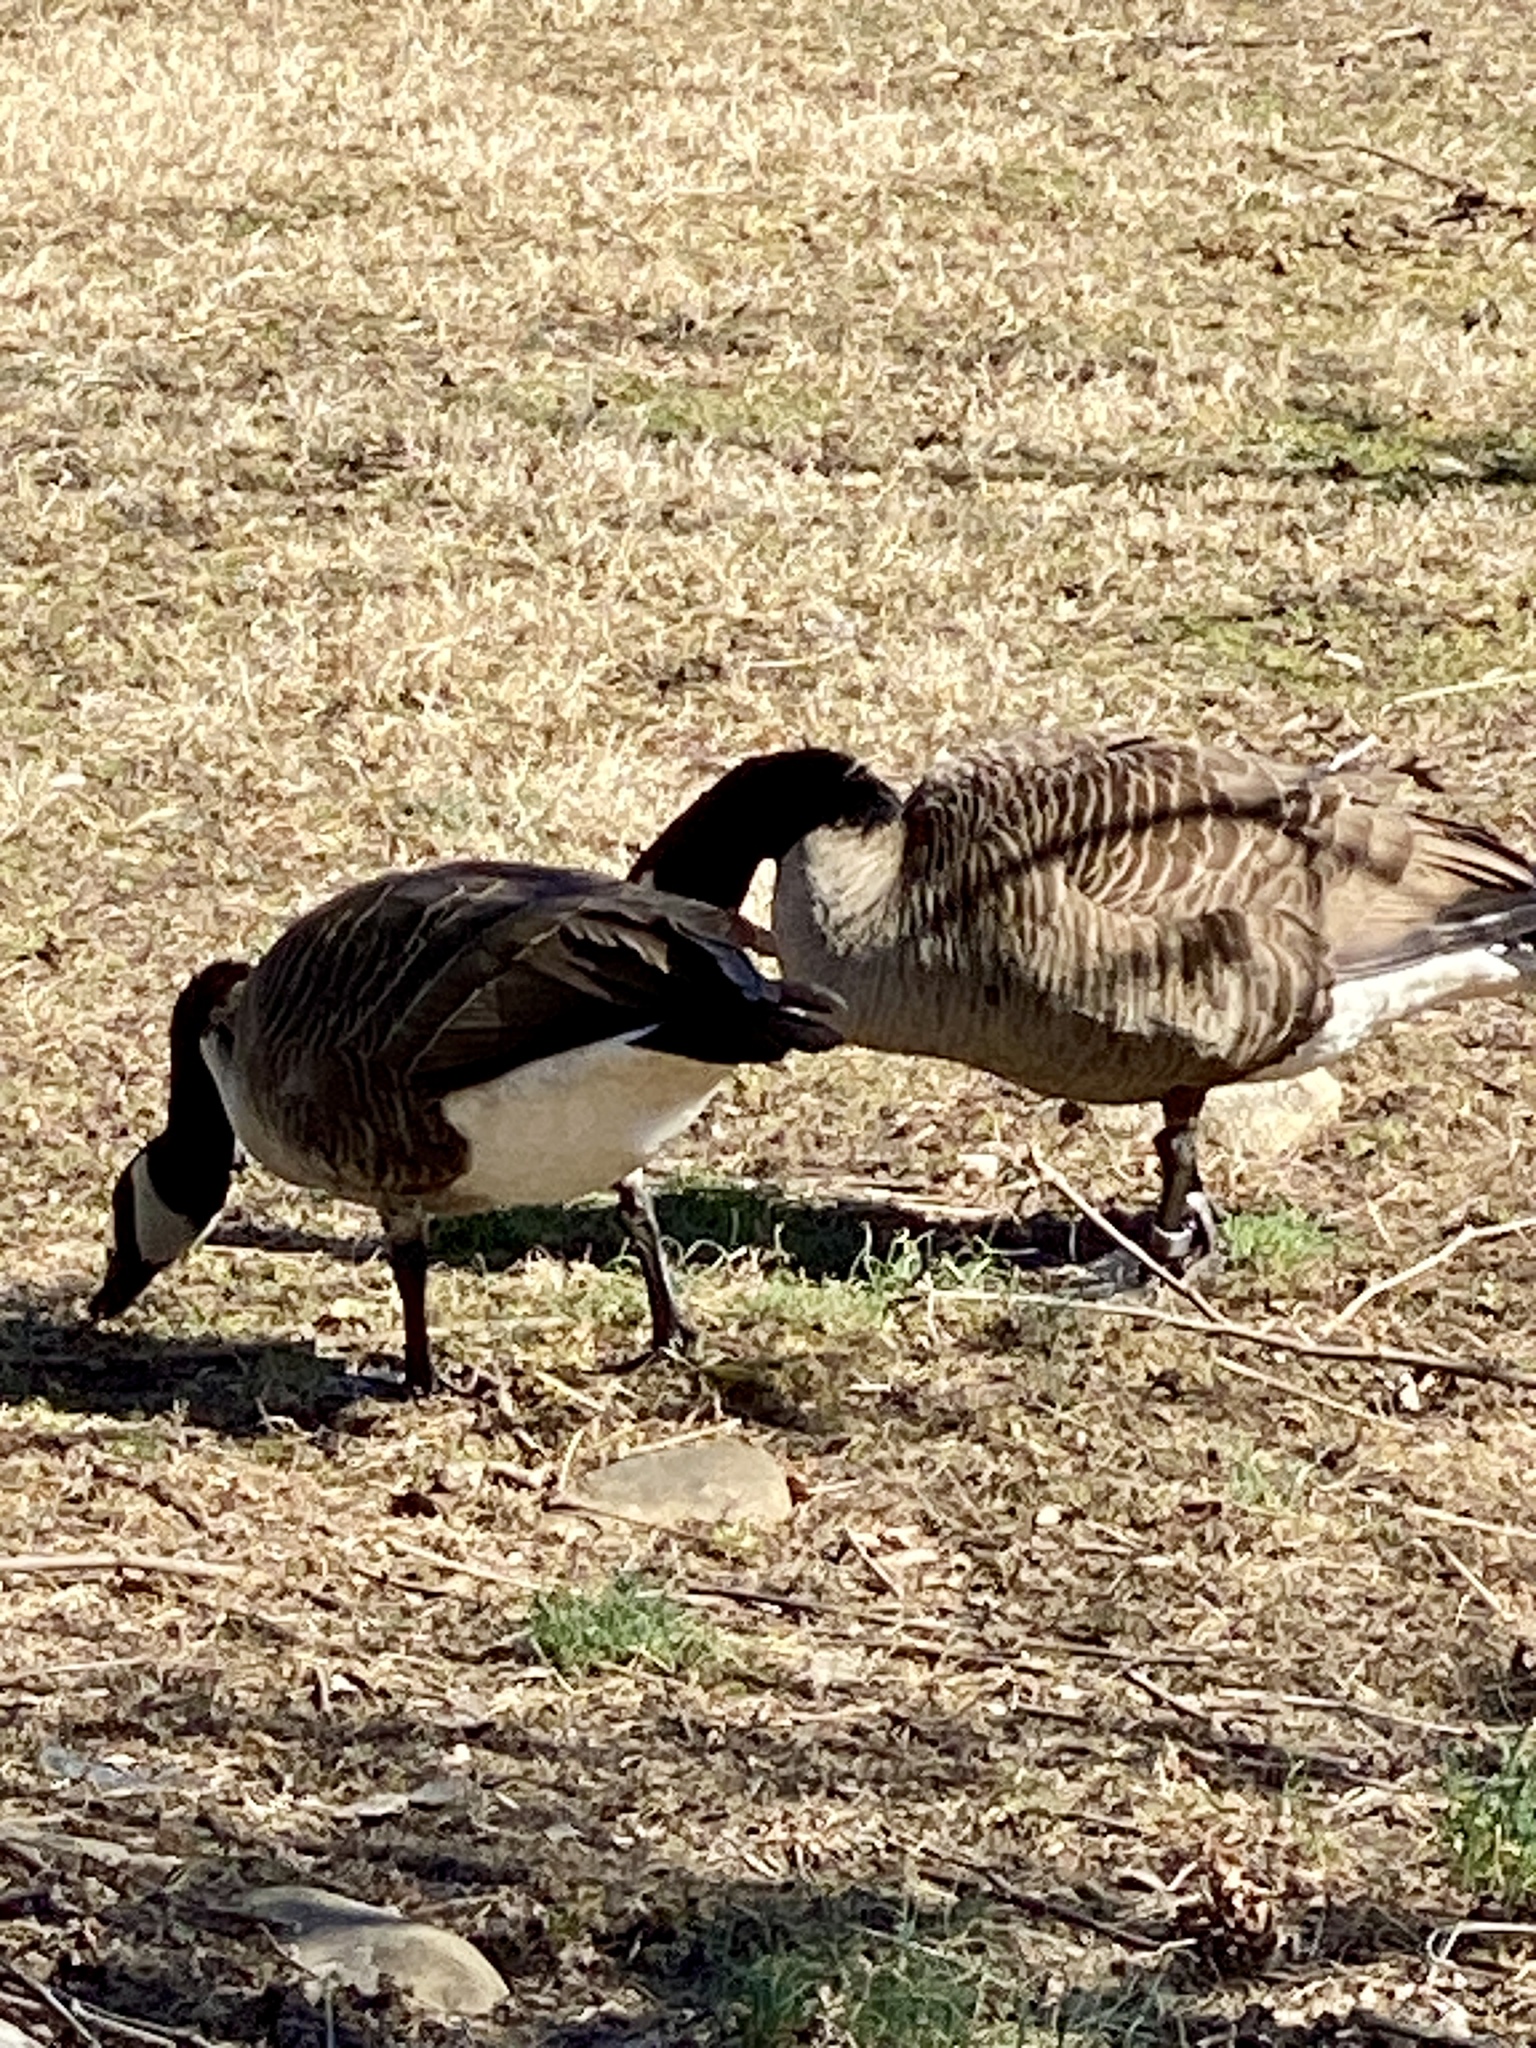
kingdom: Animalia
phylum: Chordata
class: Aves
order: Anseriformes
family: Anatidae
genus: Branta
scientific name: Branta canadensis
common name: Canada goose
